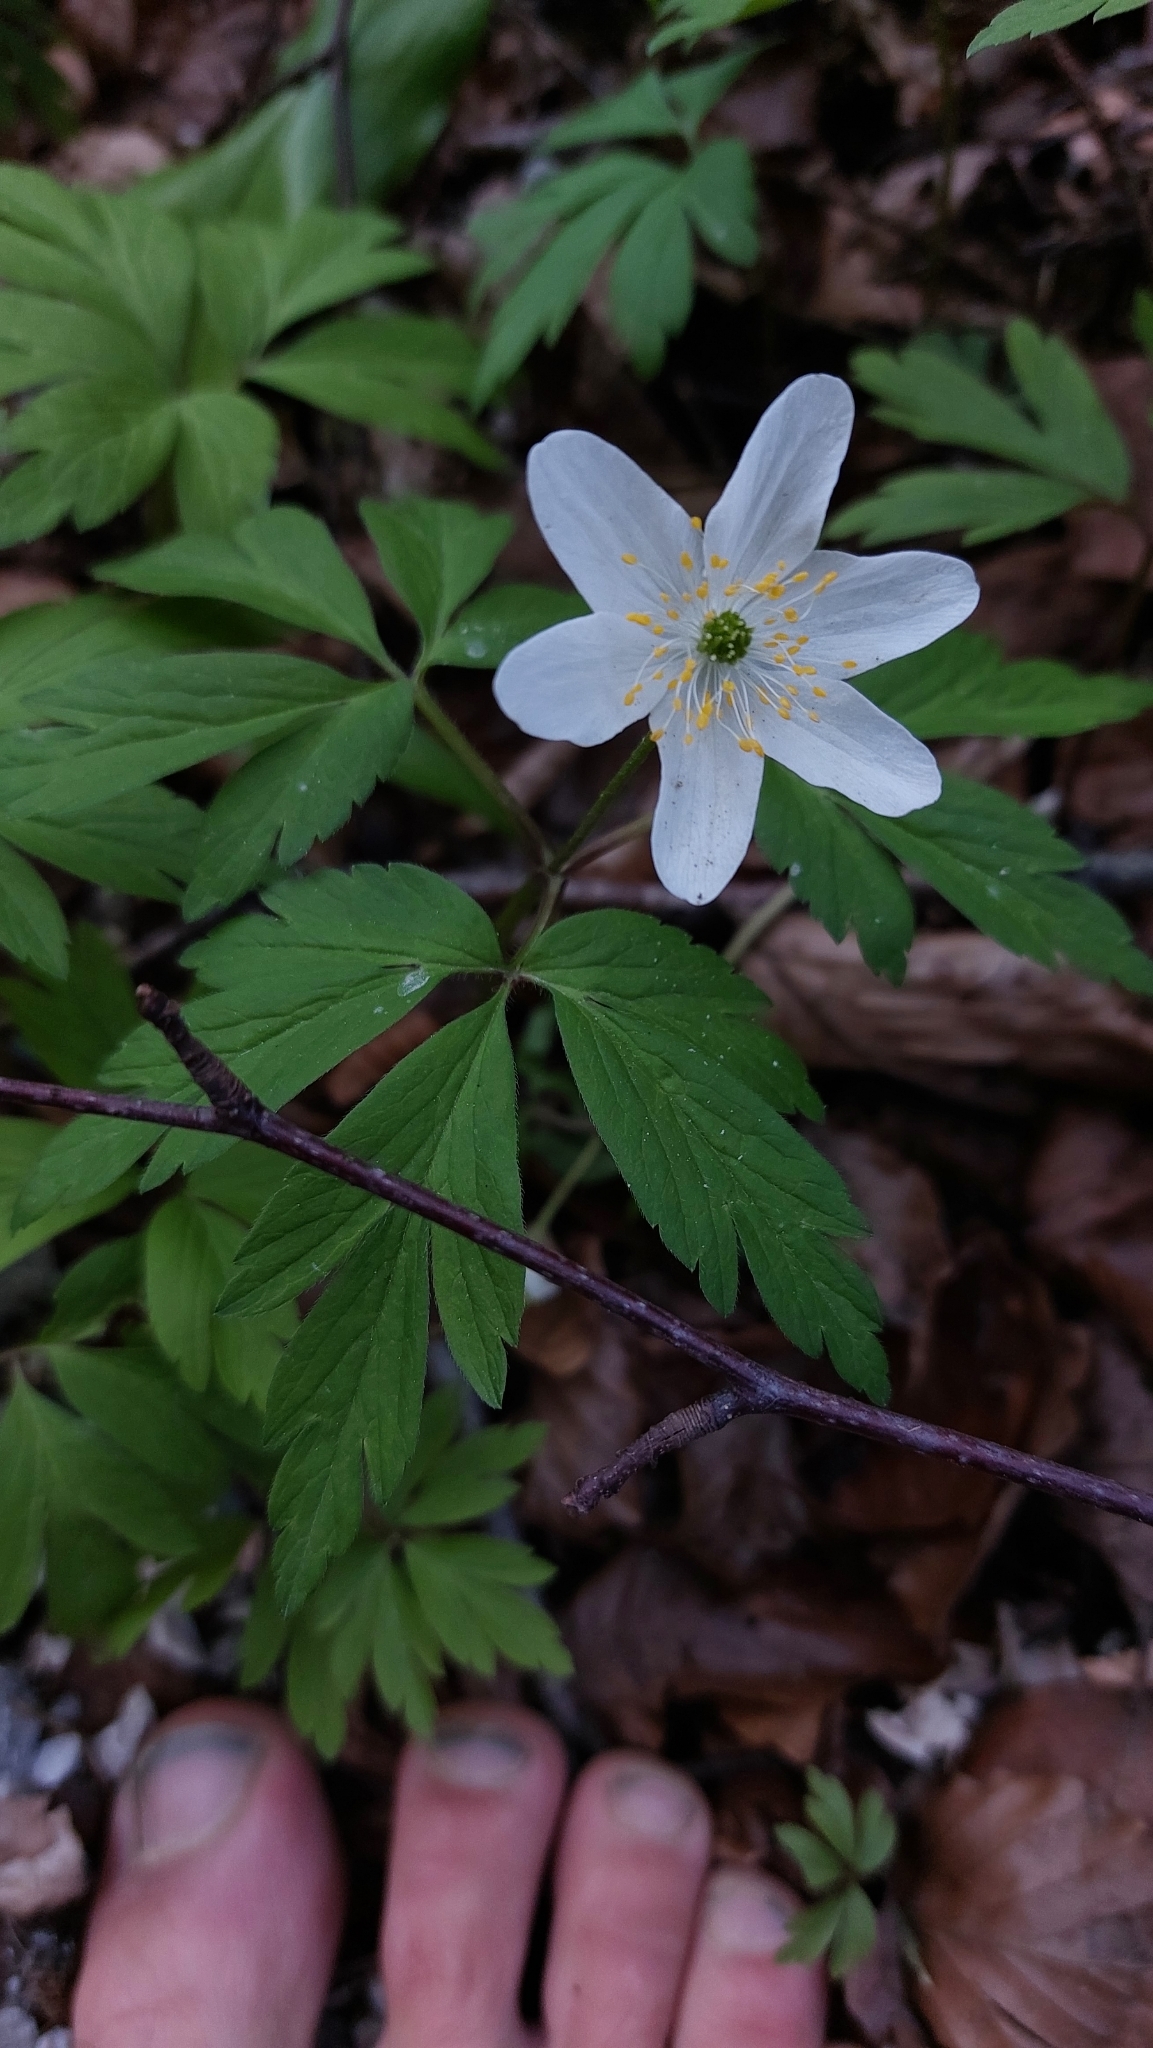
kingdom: Plantae
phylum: Tracheophyta
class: Magnoliopsida
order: Ranunculales
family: Ranunculaceae
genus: Anemone
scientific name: Anemone nemorosa
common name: Wood anemone
